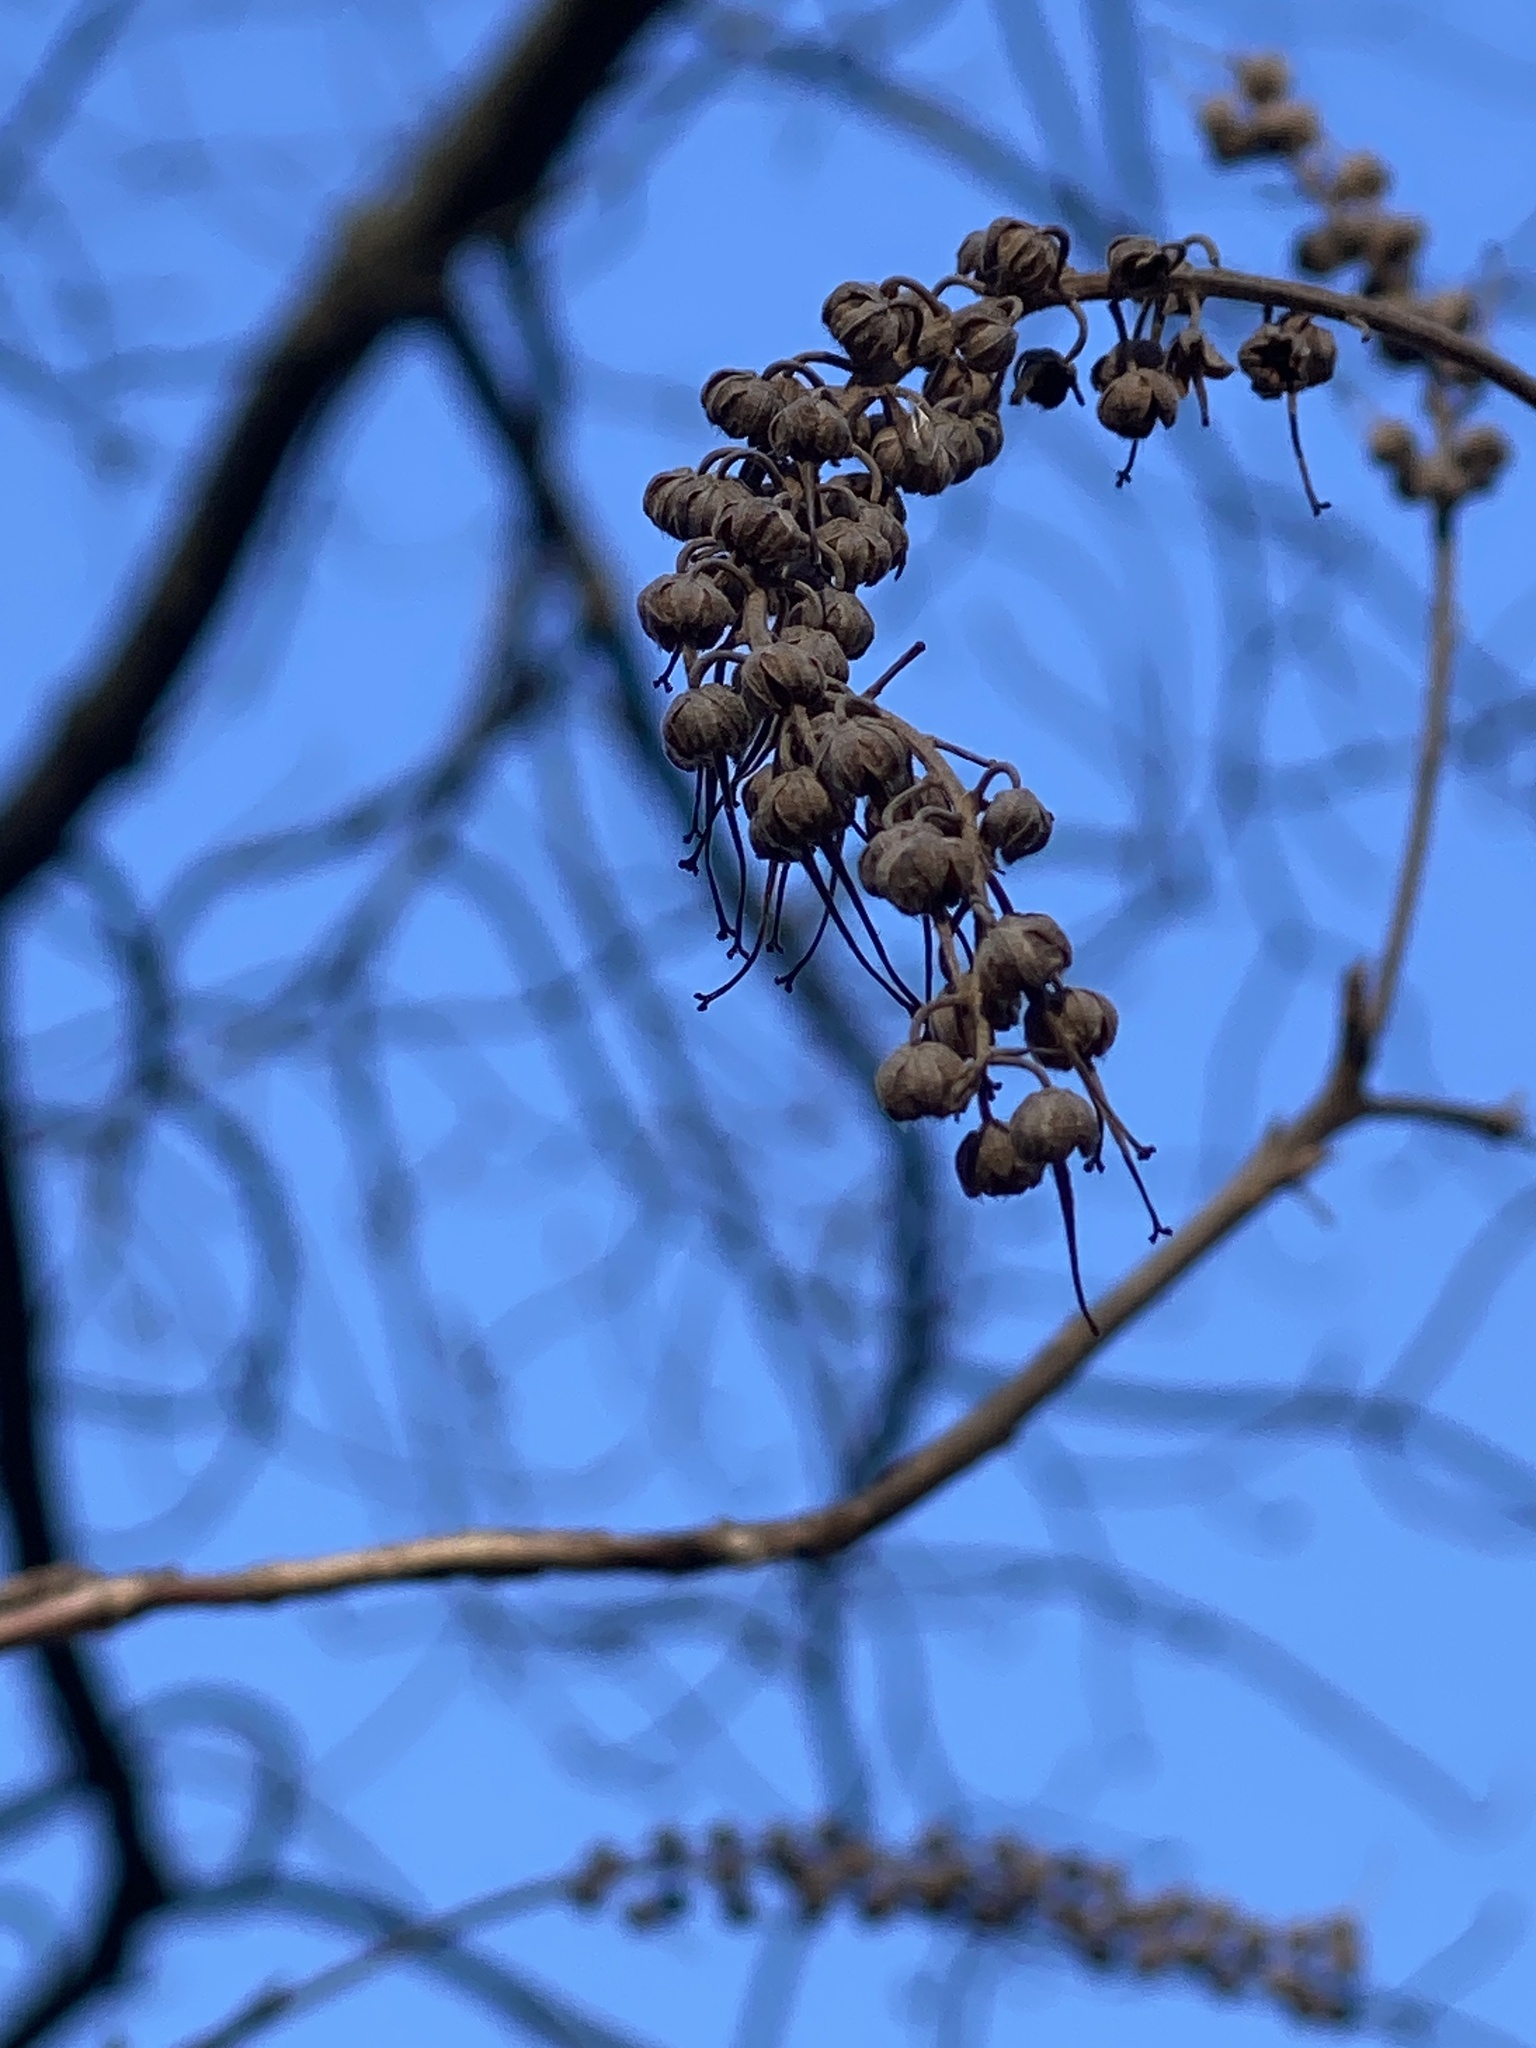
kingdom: Plantae
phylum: Tracheophyta
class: Magnoliopsida
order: Ericales
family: Clethraceae
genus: Clethra
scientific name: Clethra alnifolia
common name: Sweet pepperbush
